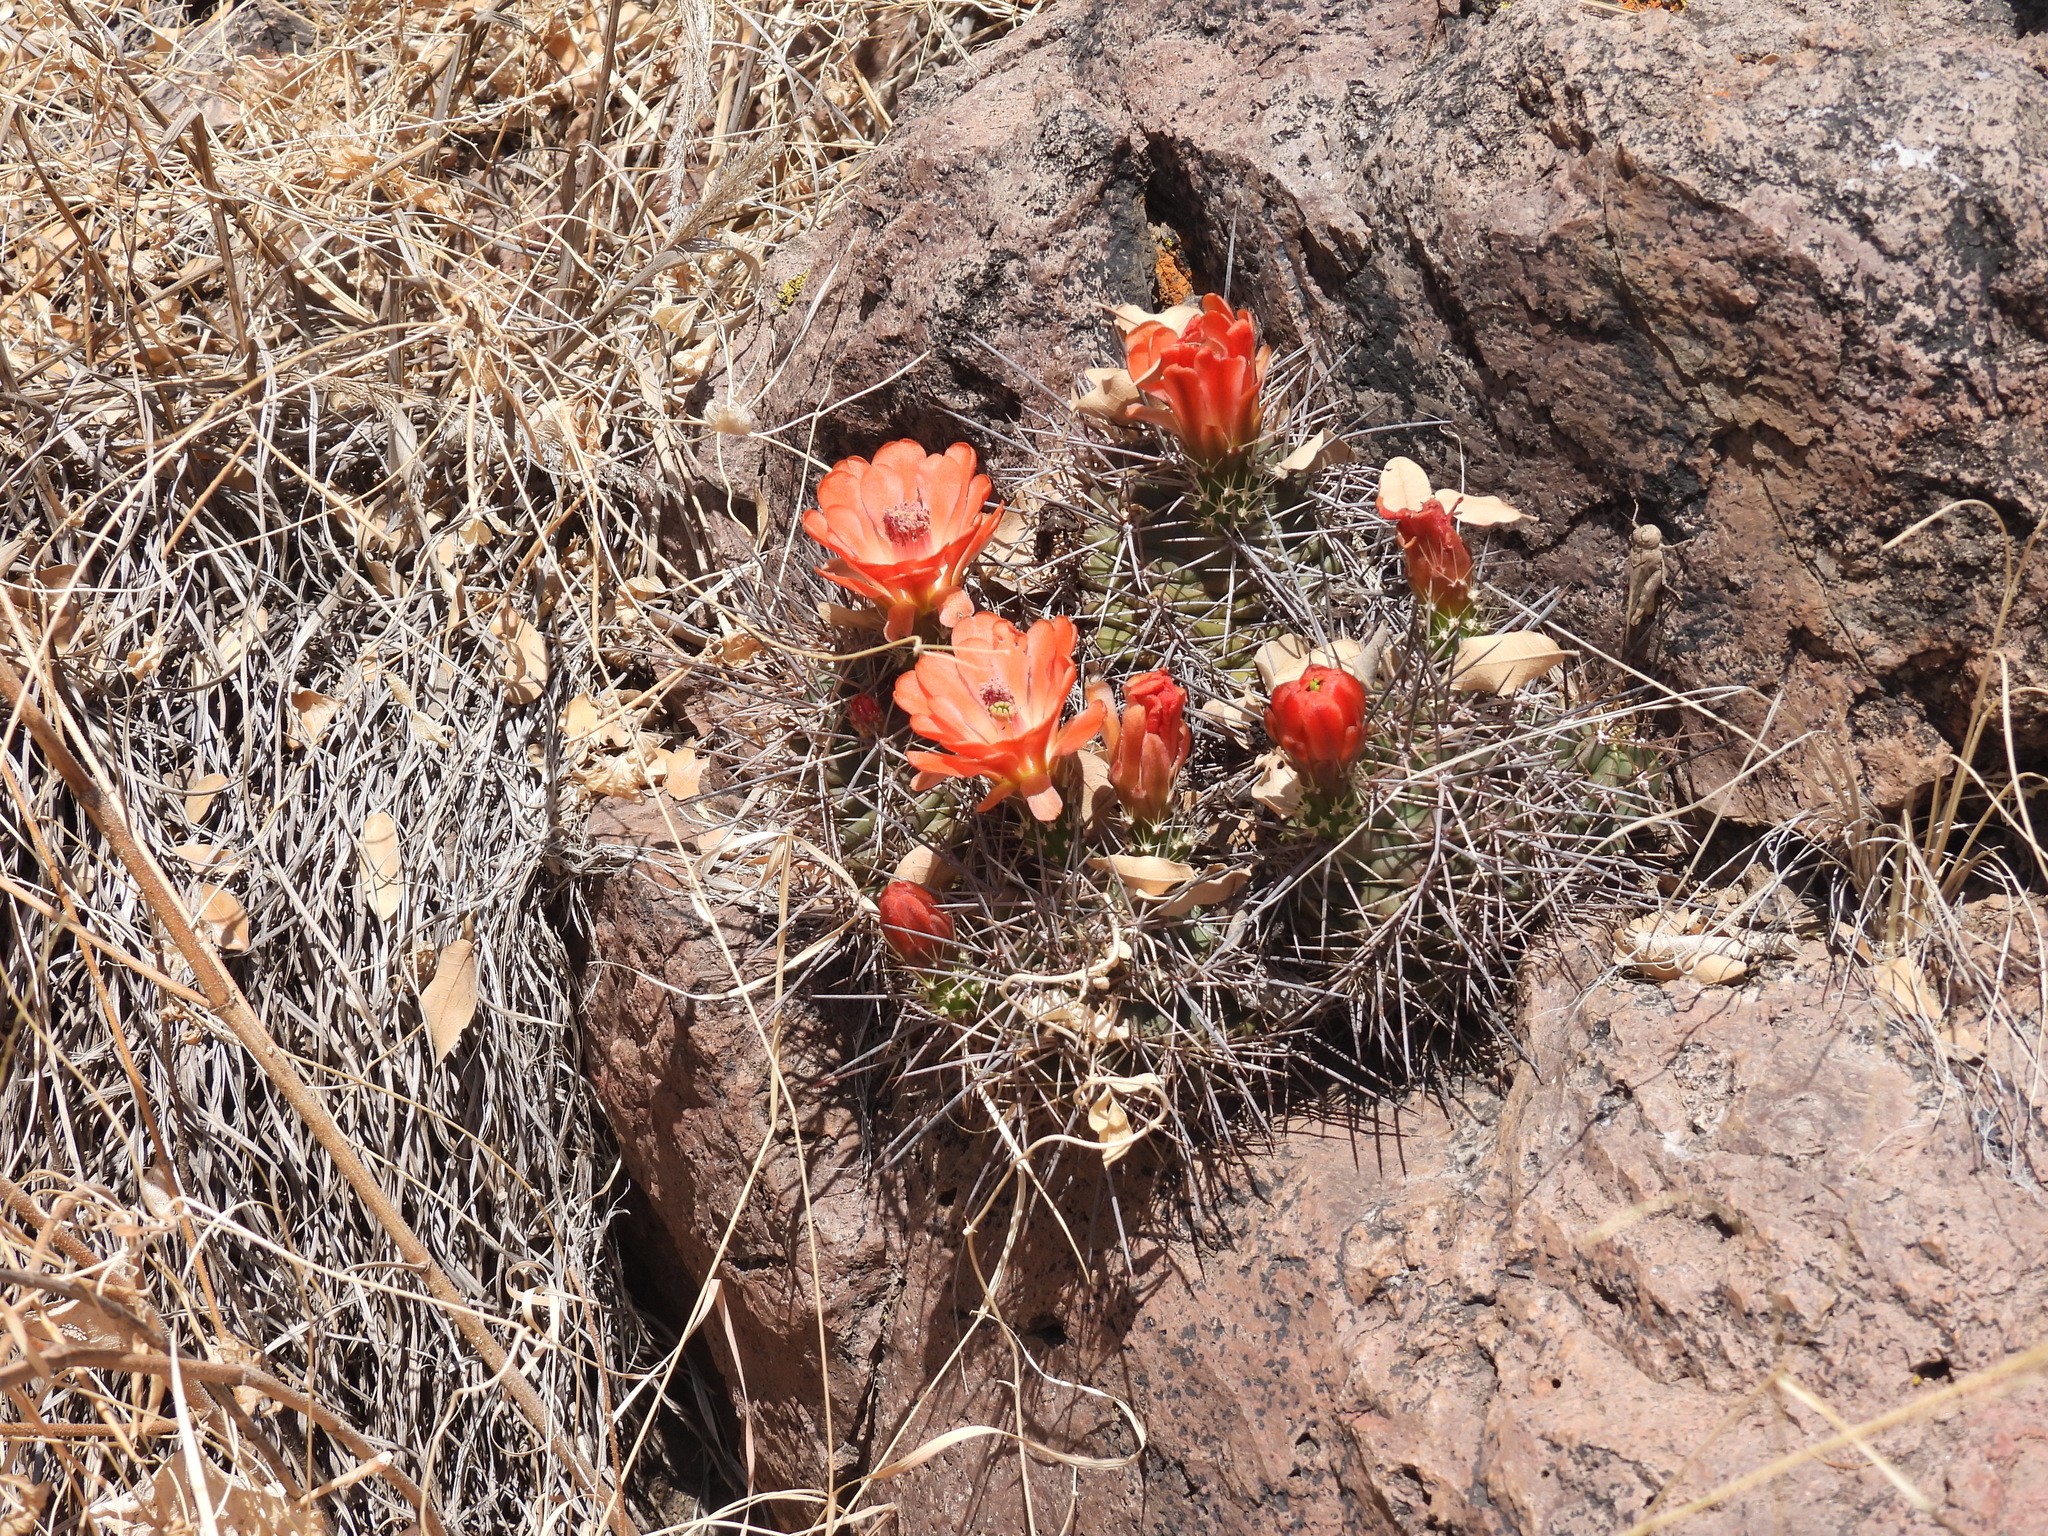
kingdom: Plantae
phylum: Tracheophyta
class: Magnoliopsida
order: Caryophyllales
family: Cactaceae
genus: Echinocereus
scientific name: Echinocereus coccineus
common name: Scarlet hedgehog cactus
